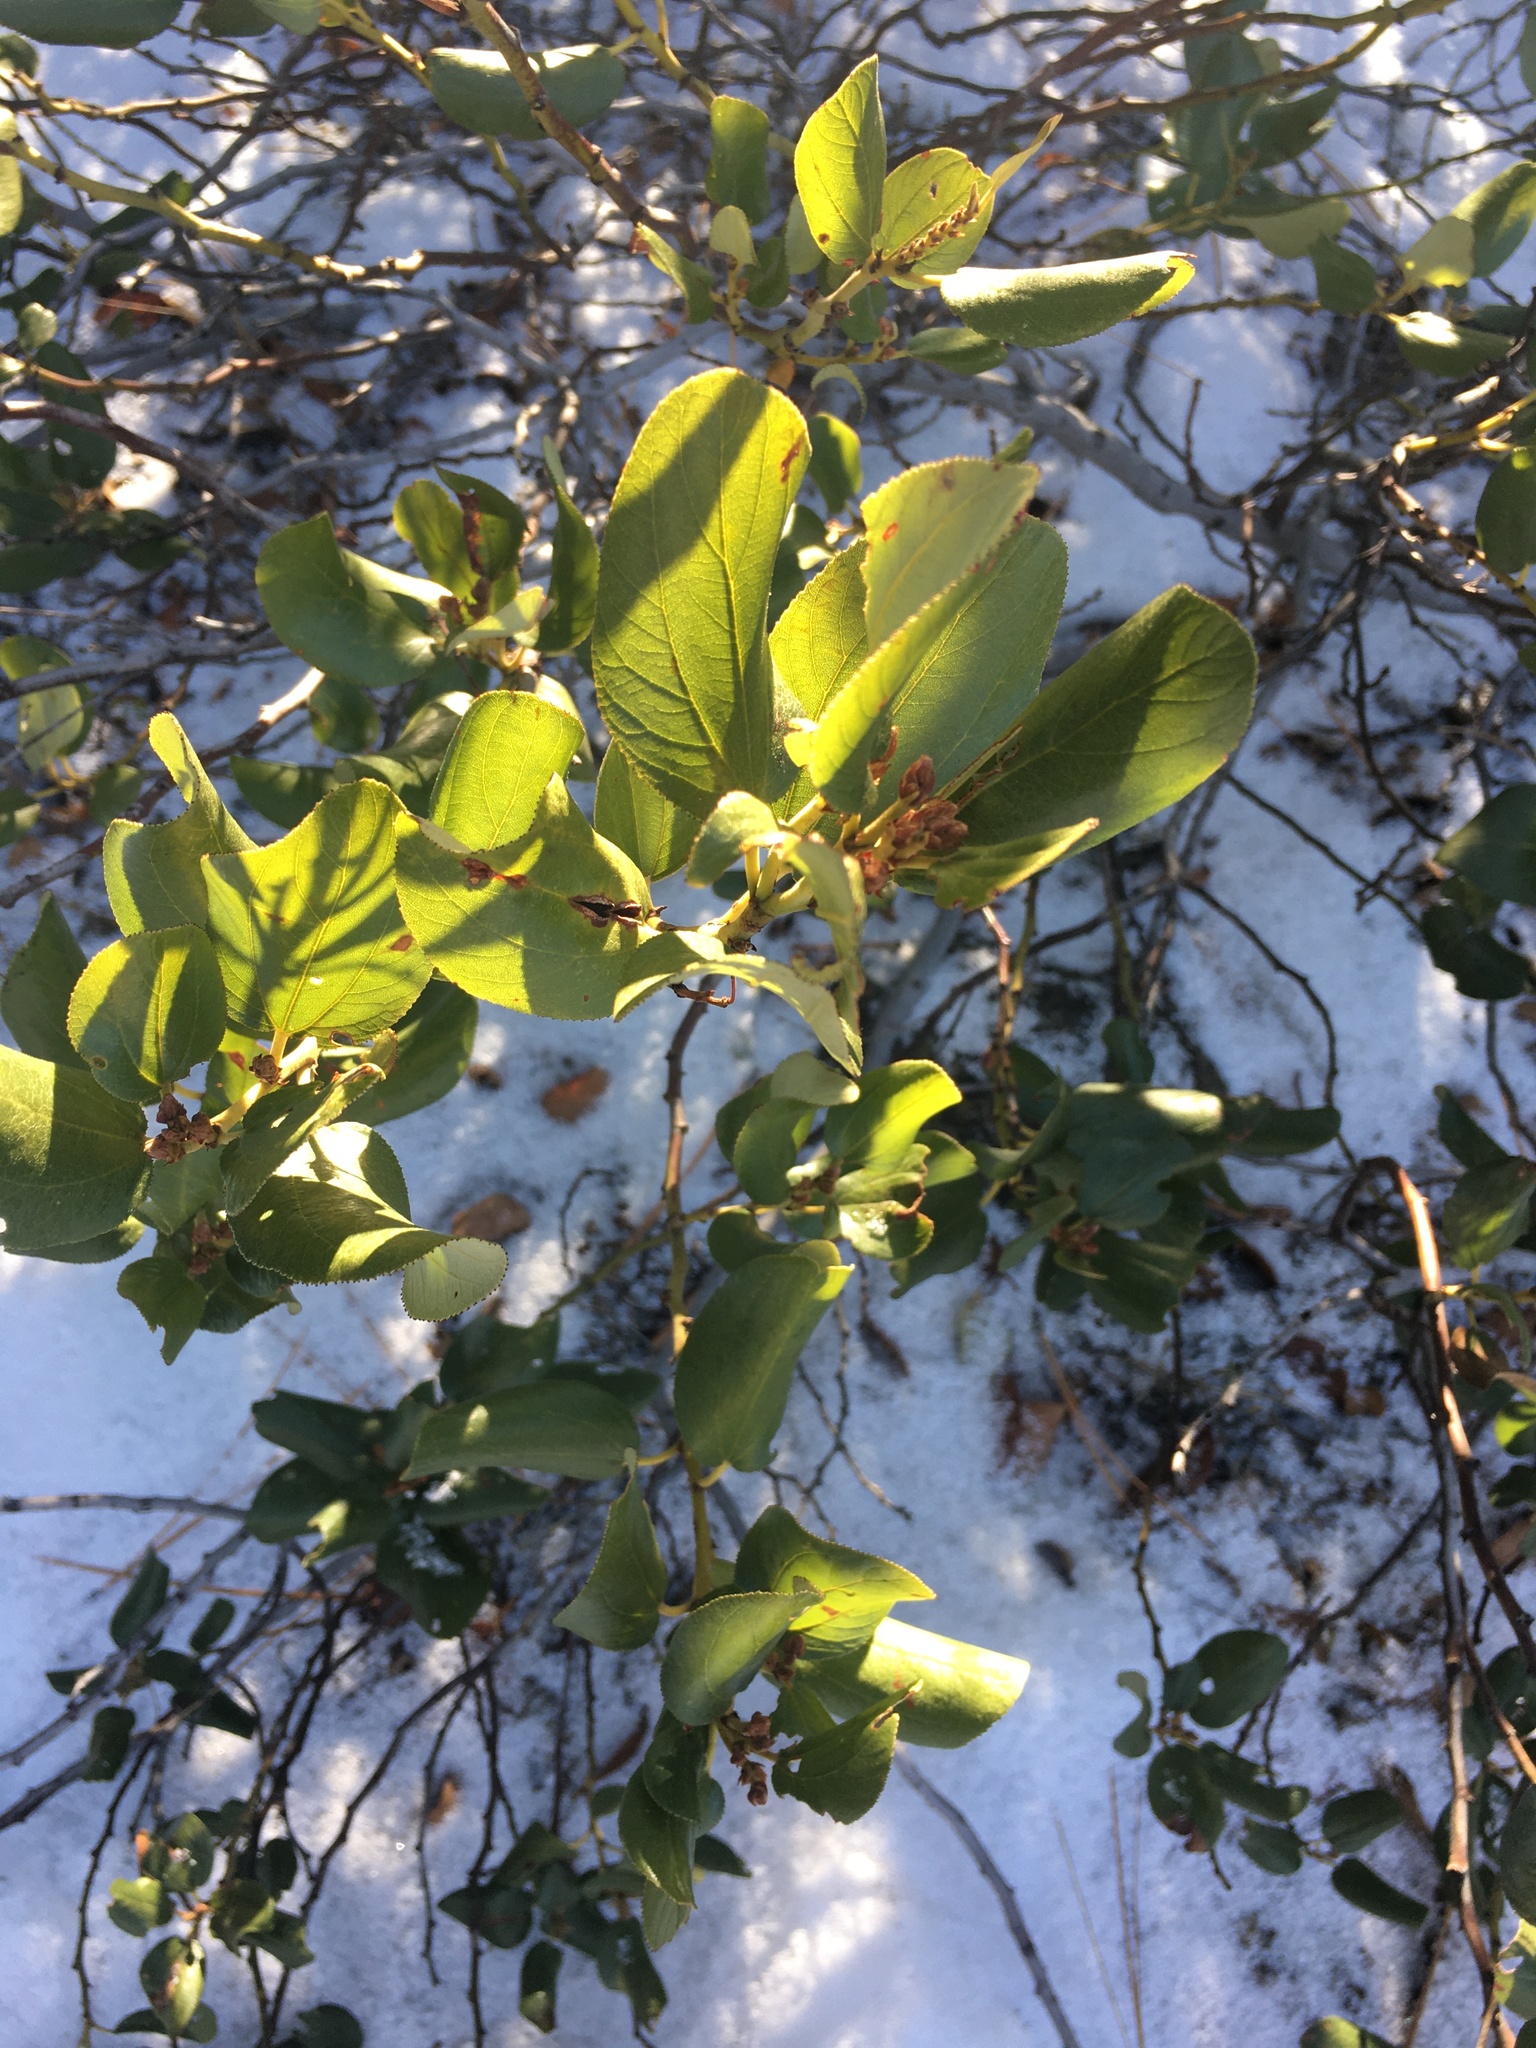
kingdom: Plantae
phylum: Tracheophyta
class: Magnoliopsida
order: Rosales
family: Rhamnaceae
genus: Ceanothus
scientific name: Ceanothus velutinus
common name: Snowbrush
